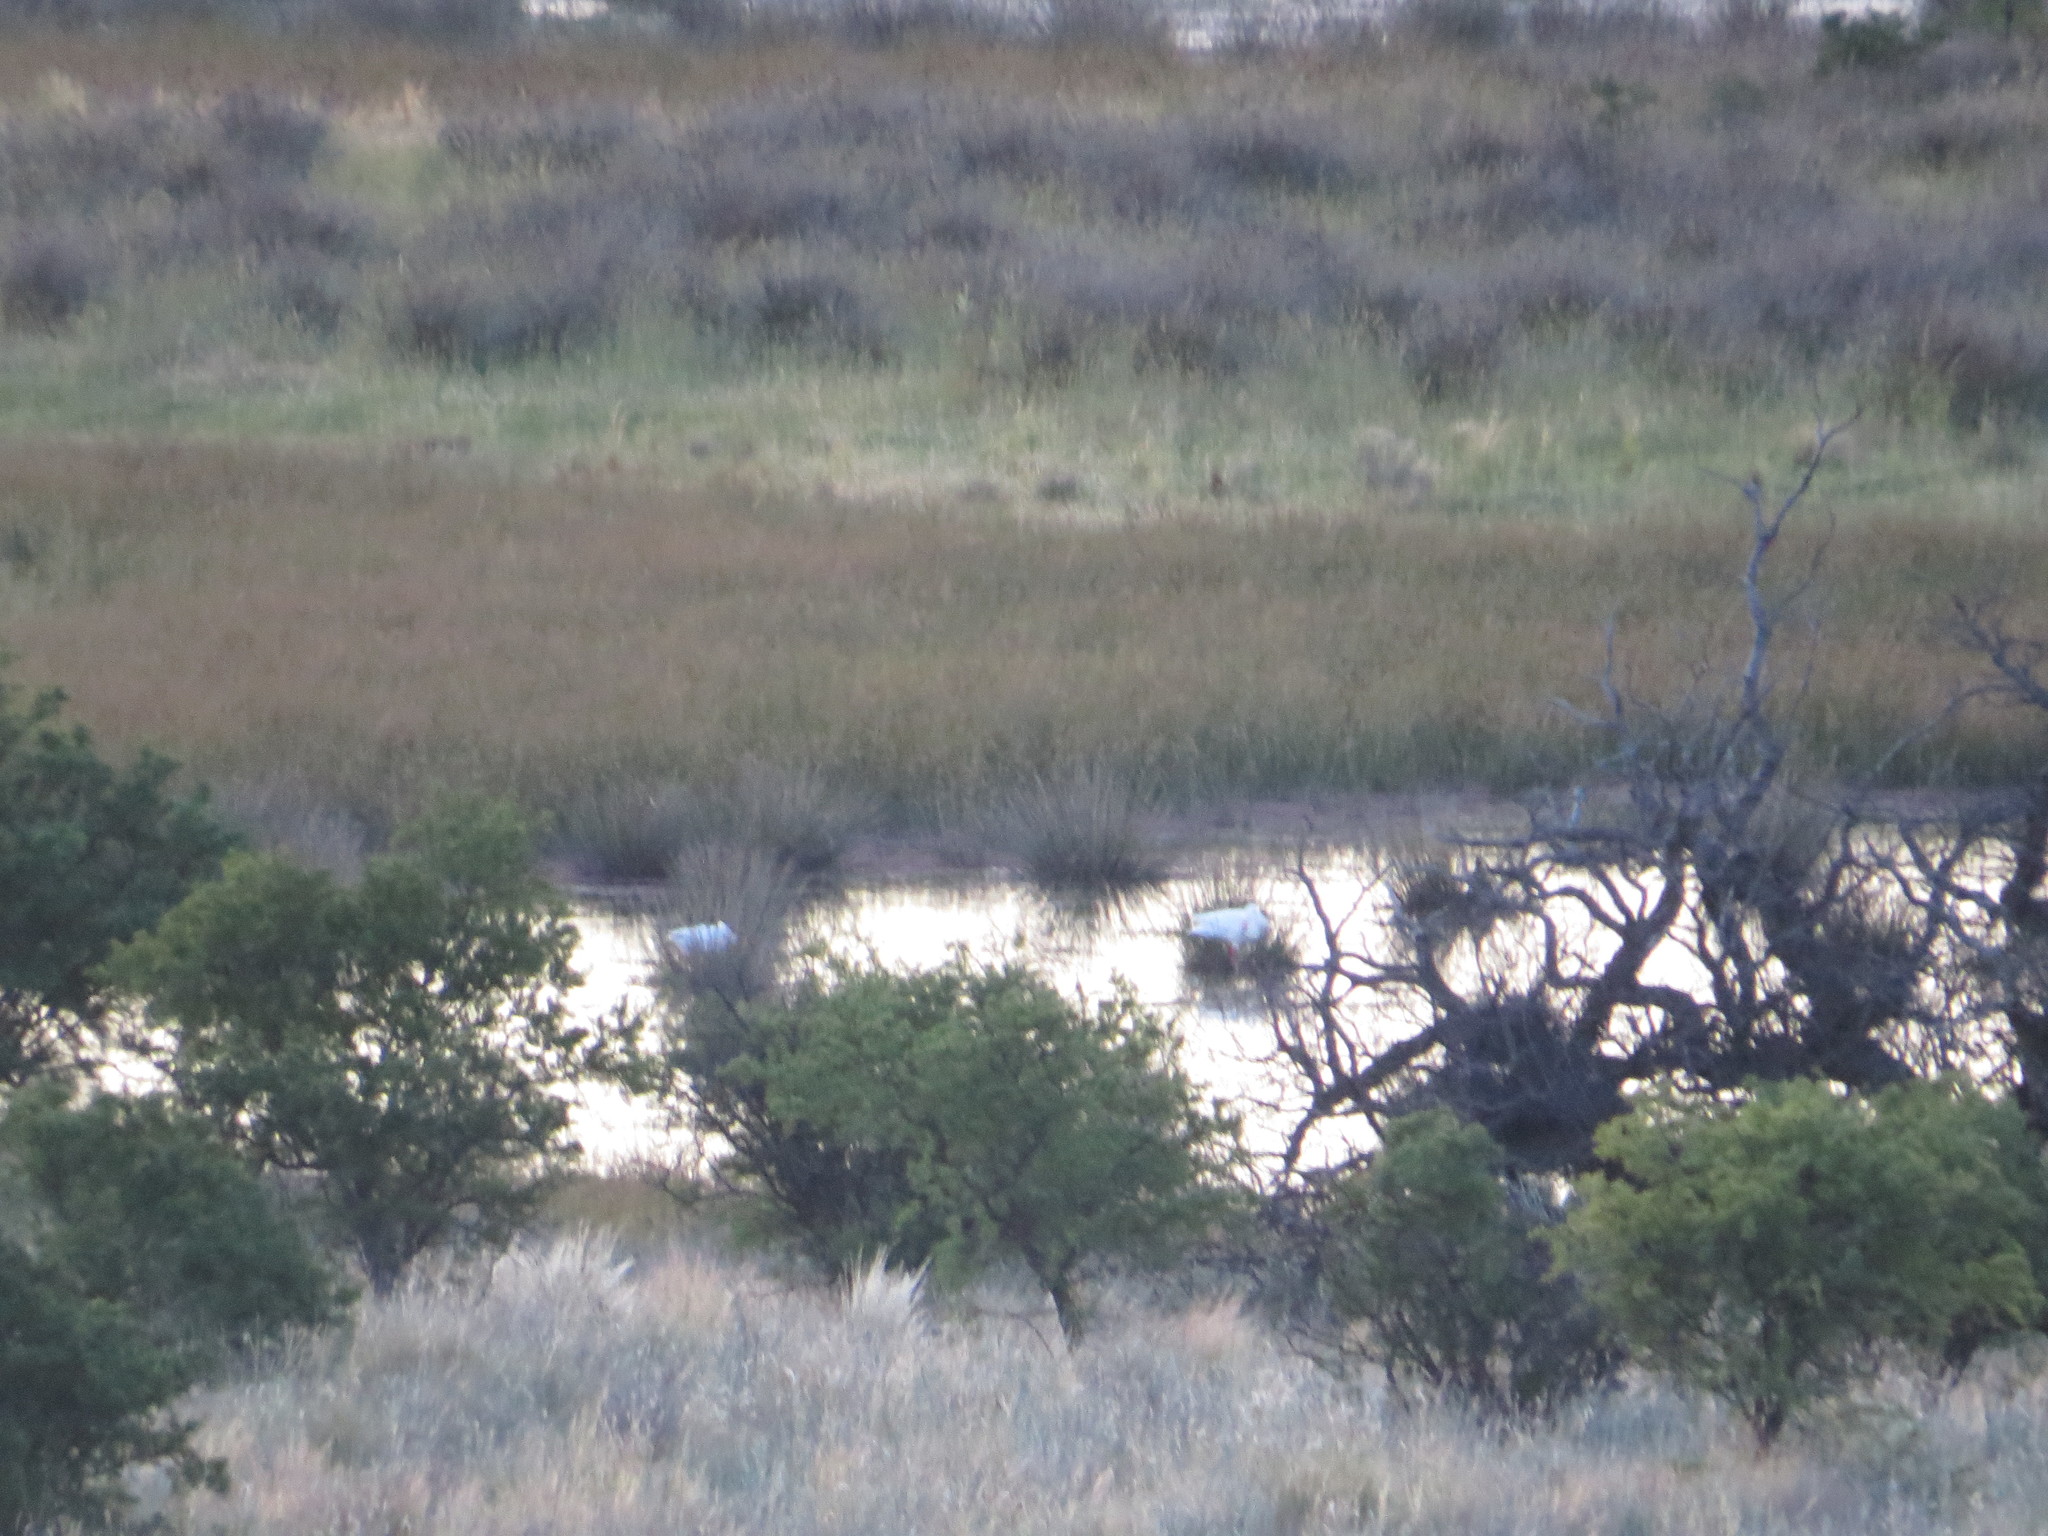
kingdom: Animalia
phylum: Chordata
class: Aves
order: Anseriformes
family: Anatidae
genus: Coscoroba
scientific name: Coscoroba coscoroba
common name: Coscoroba swan
